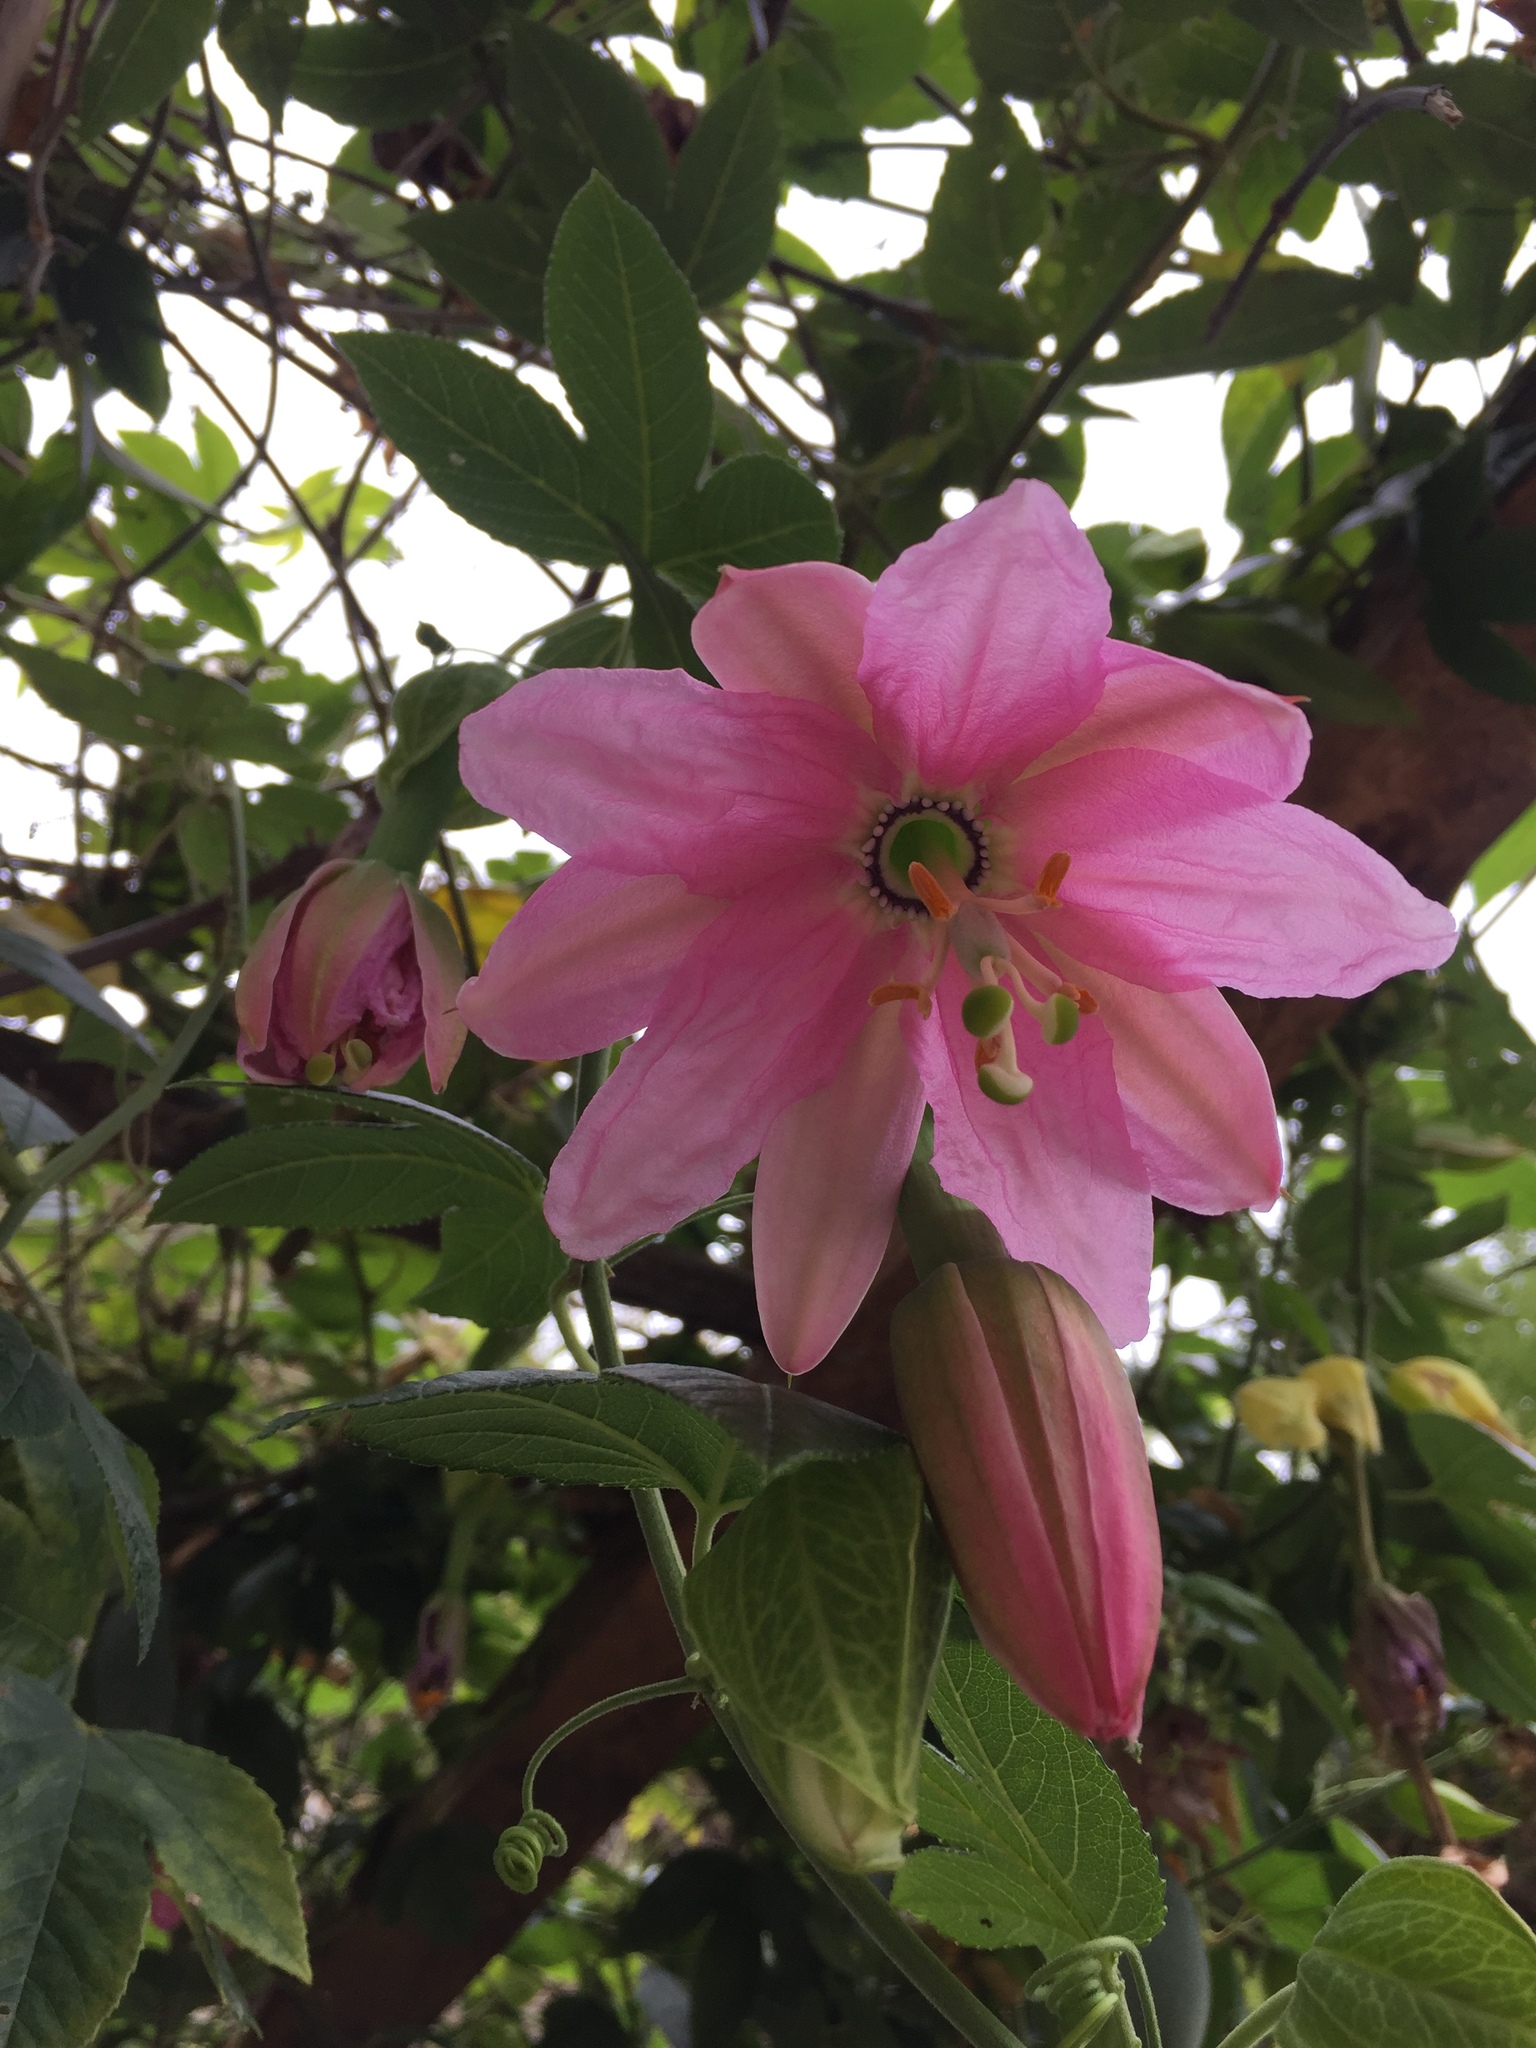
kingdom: Plantae
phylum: Tracheophyta
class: Magnoliopsida
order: Malpighiales
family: Passifloraceae
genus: Passiflora
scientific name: Passiflora tarminiana
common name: Banana poka
